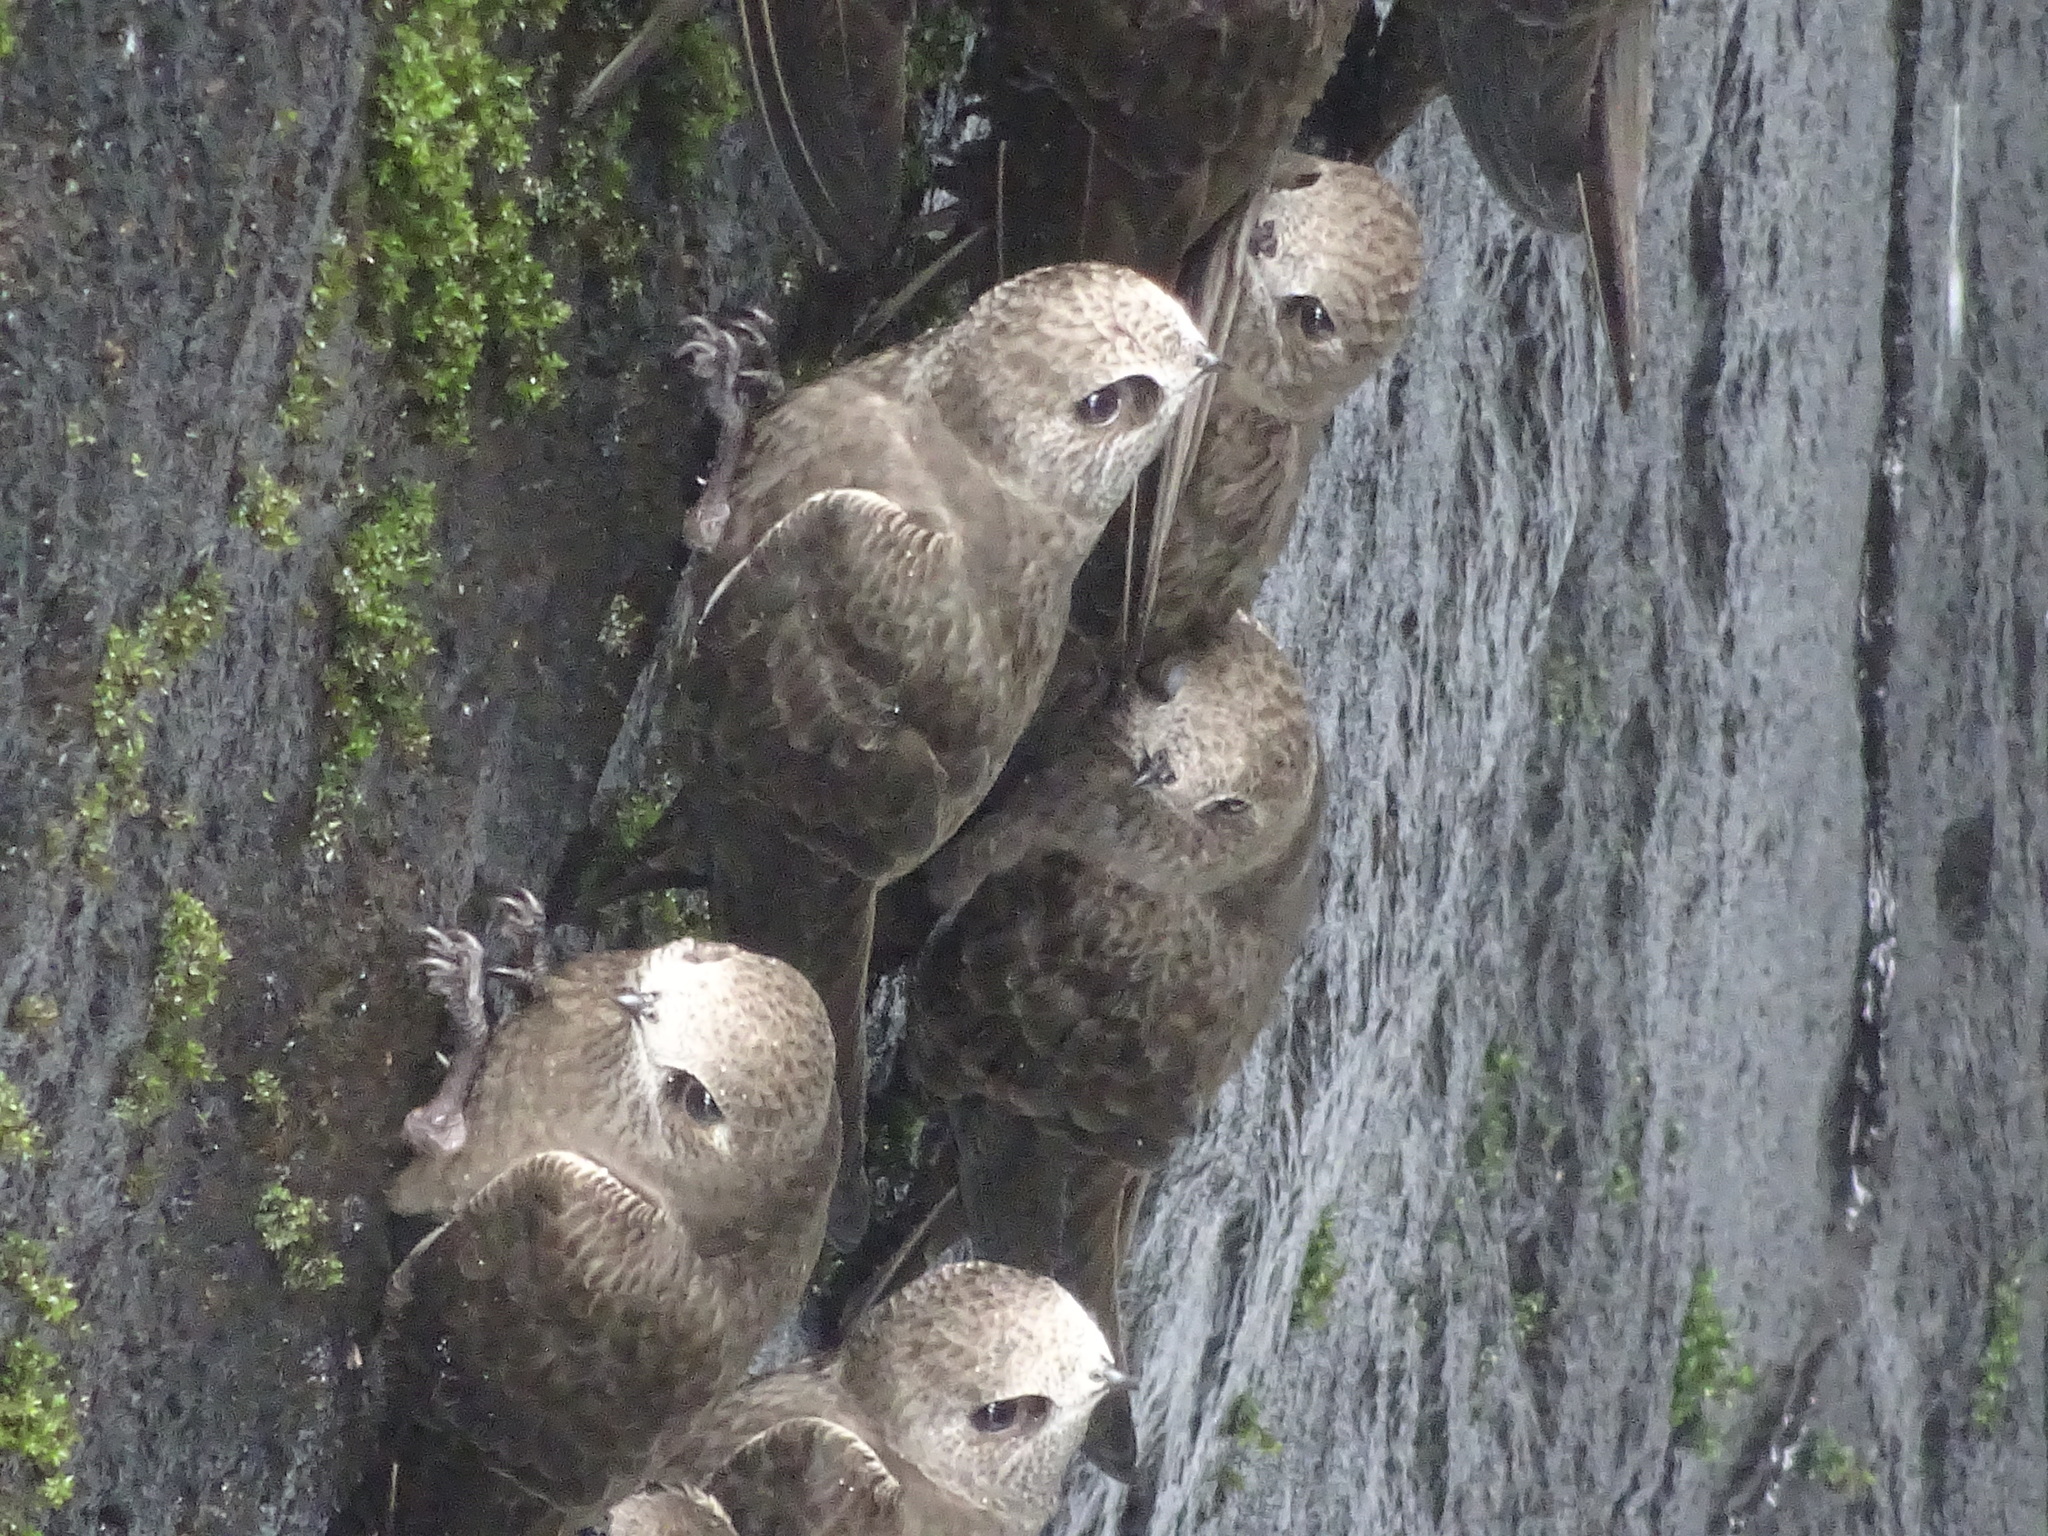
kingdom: Animalia
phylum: Chordata
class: Aves
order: Apodiformes
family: Apodidae
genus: Cypseloides
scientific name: Cypseloides senex
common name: Great dusky swift
